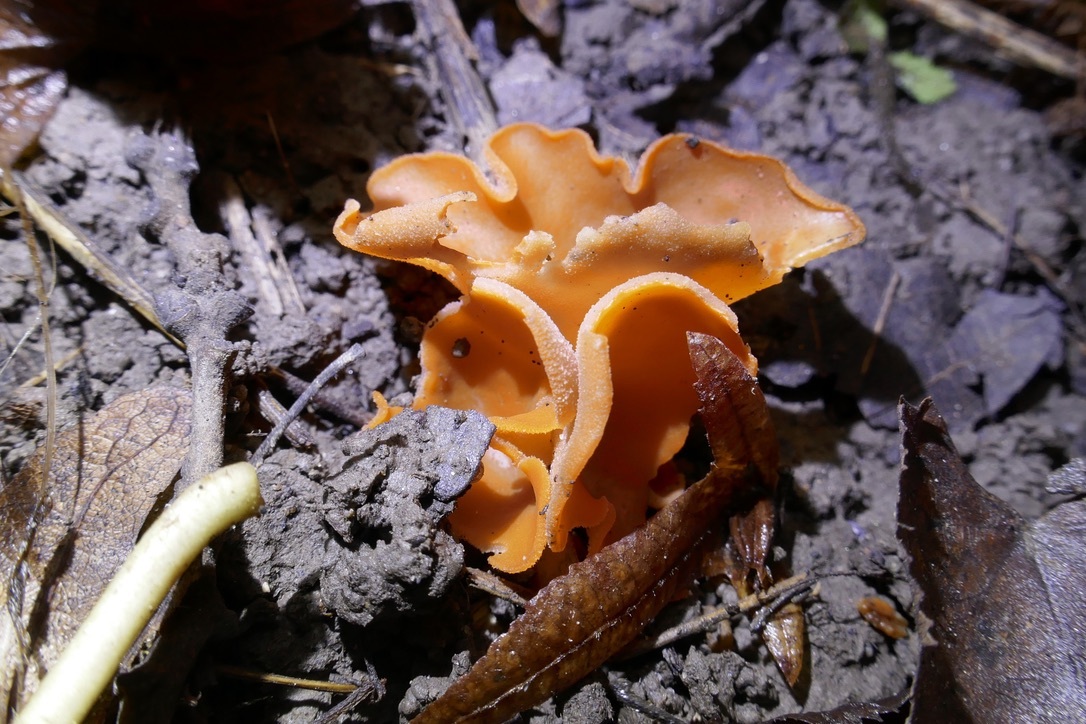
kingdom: Fungi
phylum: Ascomycota
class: Pezizomycetes
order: Pezizales
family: Pyronemataceae
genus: Aleuria
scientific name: Aleuria aurantia
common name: Orange peel fungus
